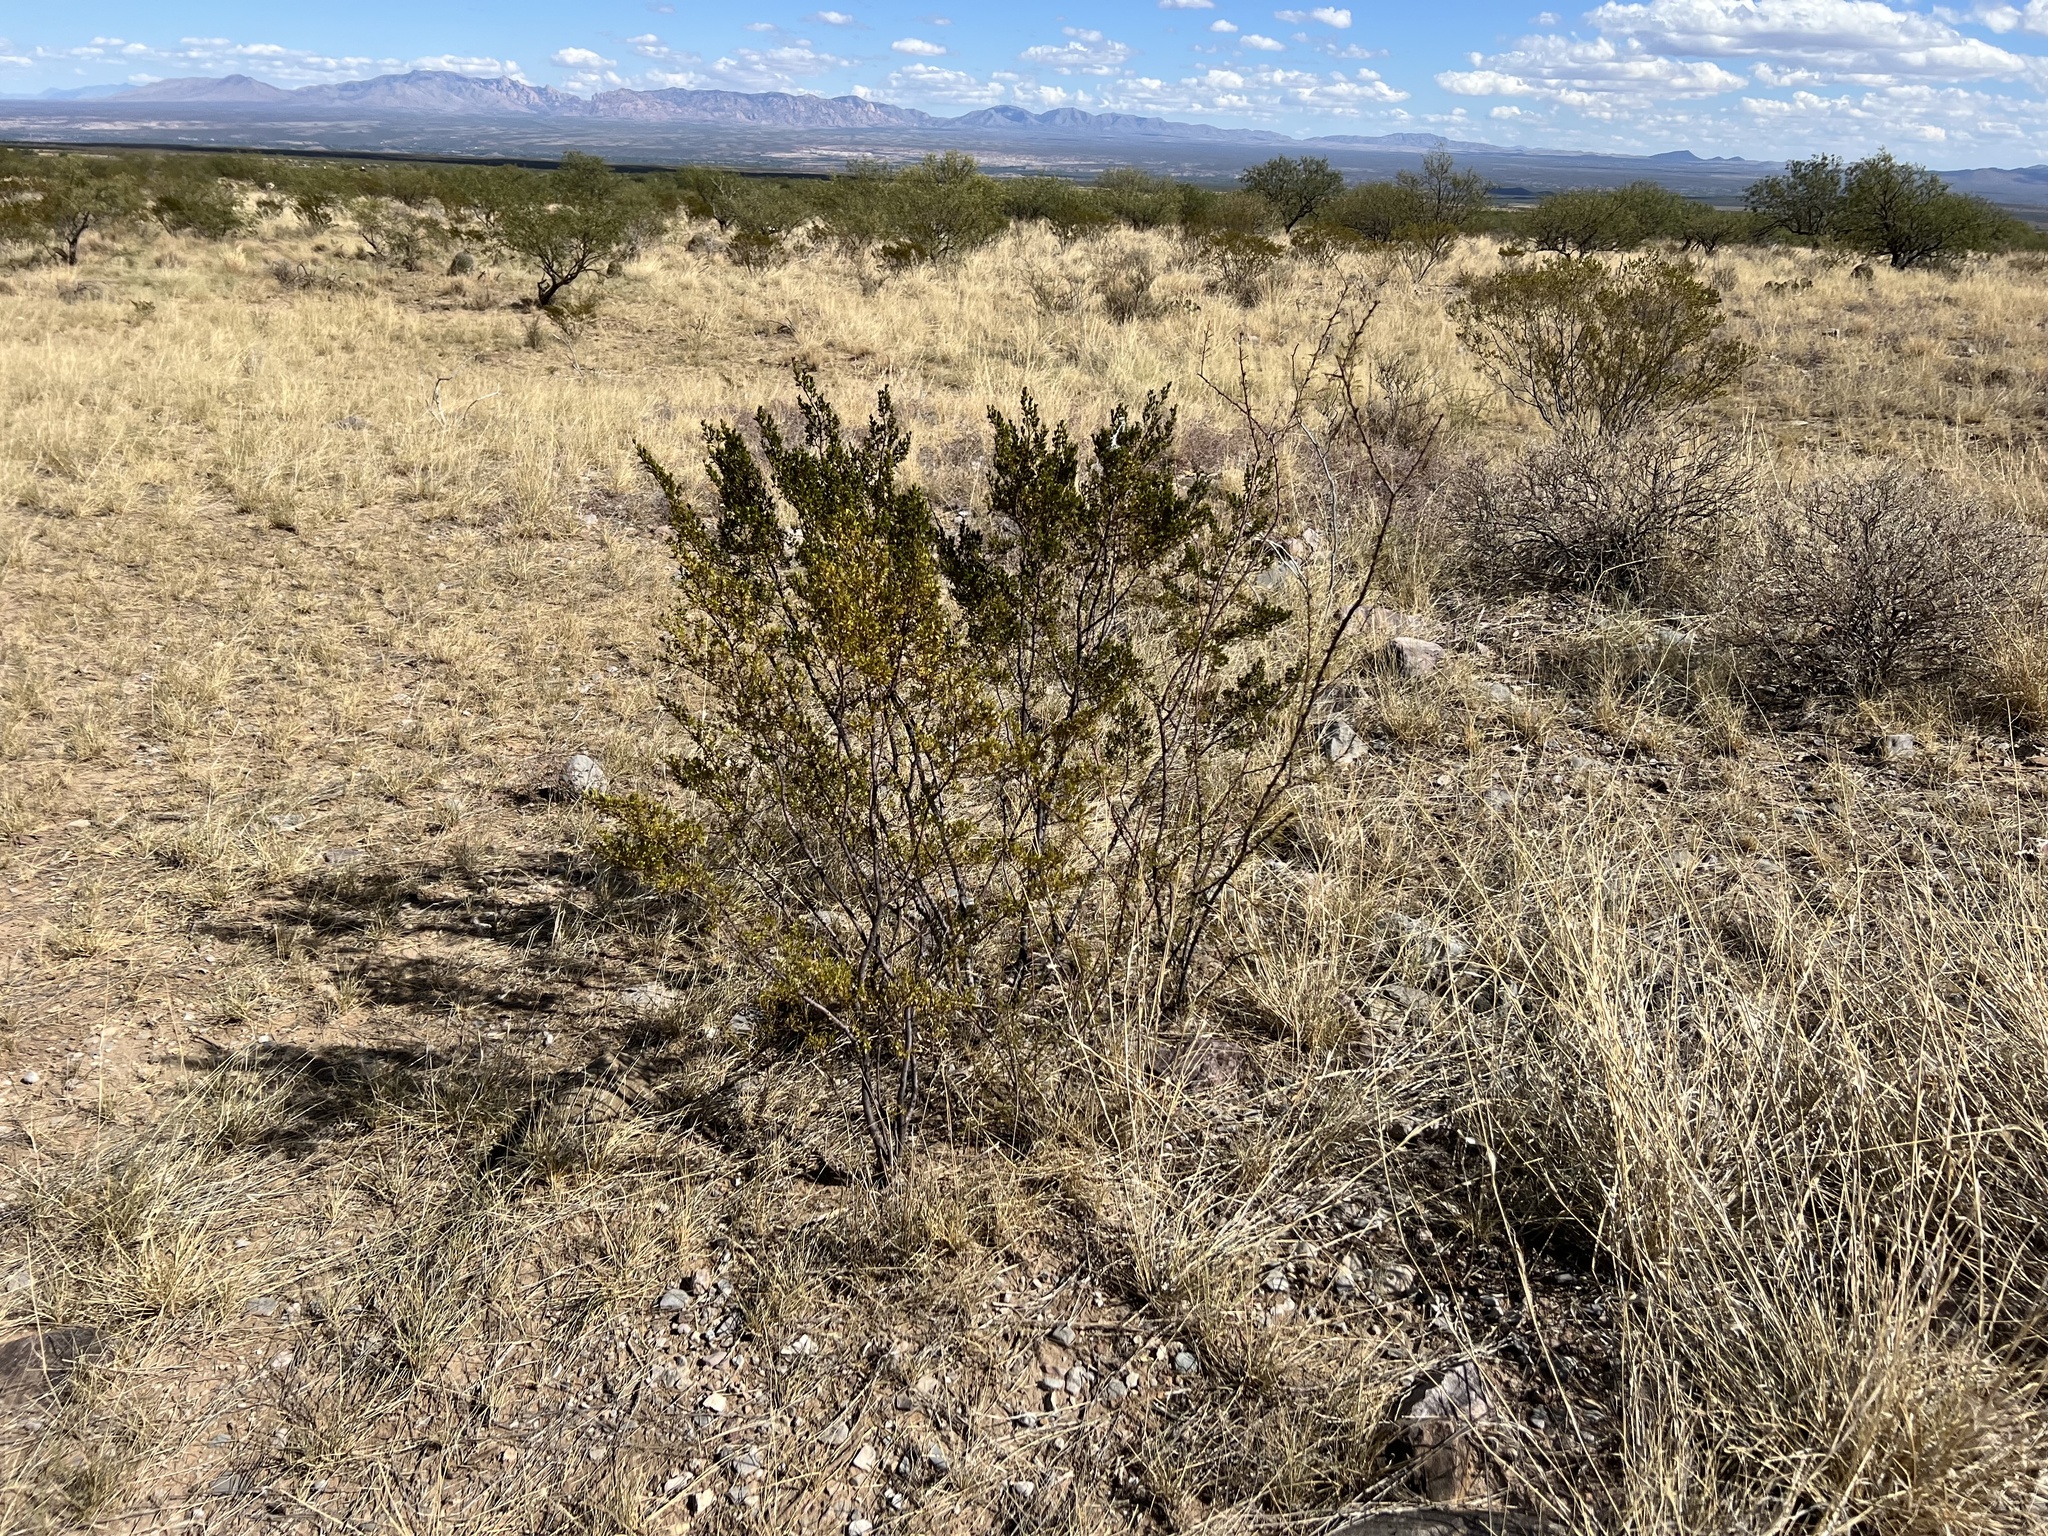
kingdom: Plantae
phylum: Tracheophyta
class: Magnoliopsida
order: Zygophyllales
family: Zygophyllaceae
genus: Larrea
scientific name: Larrea tridentata
